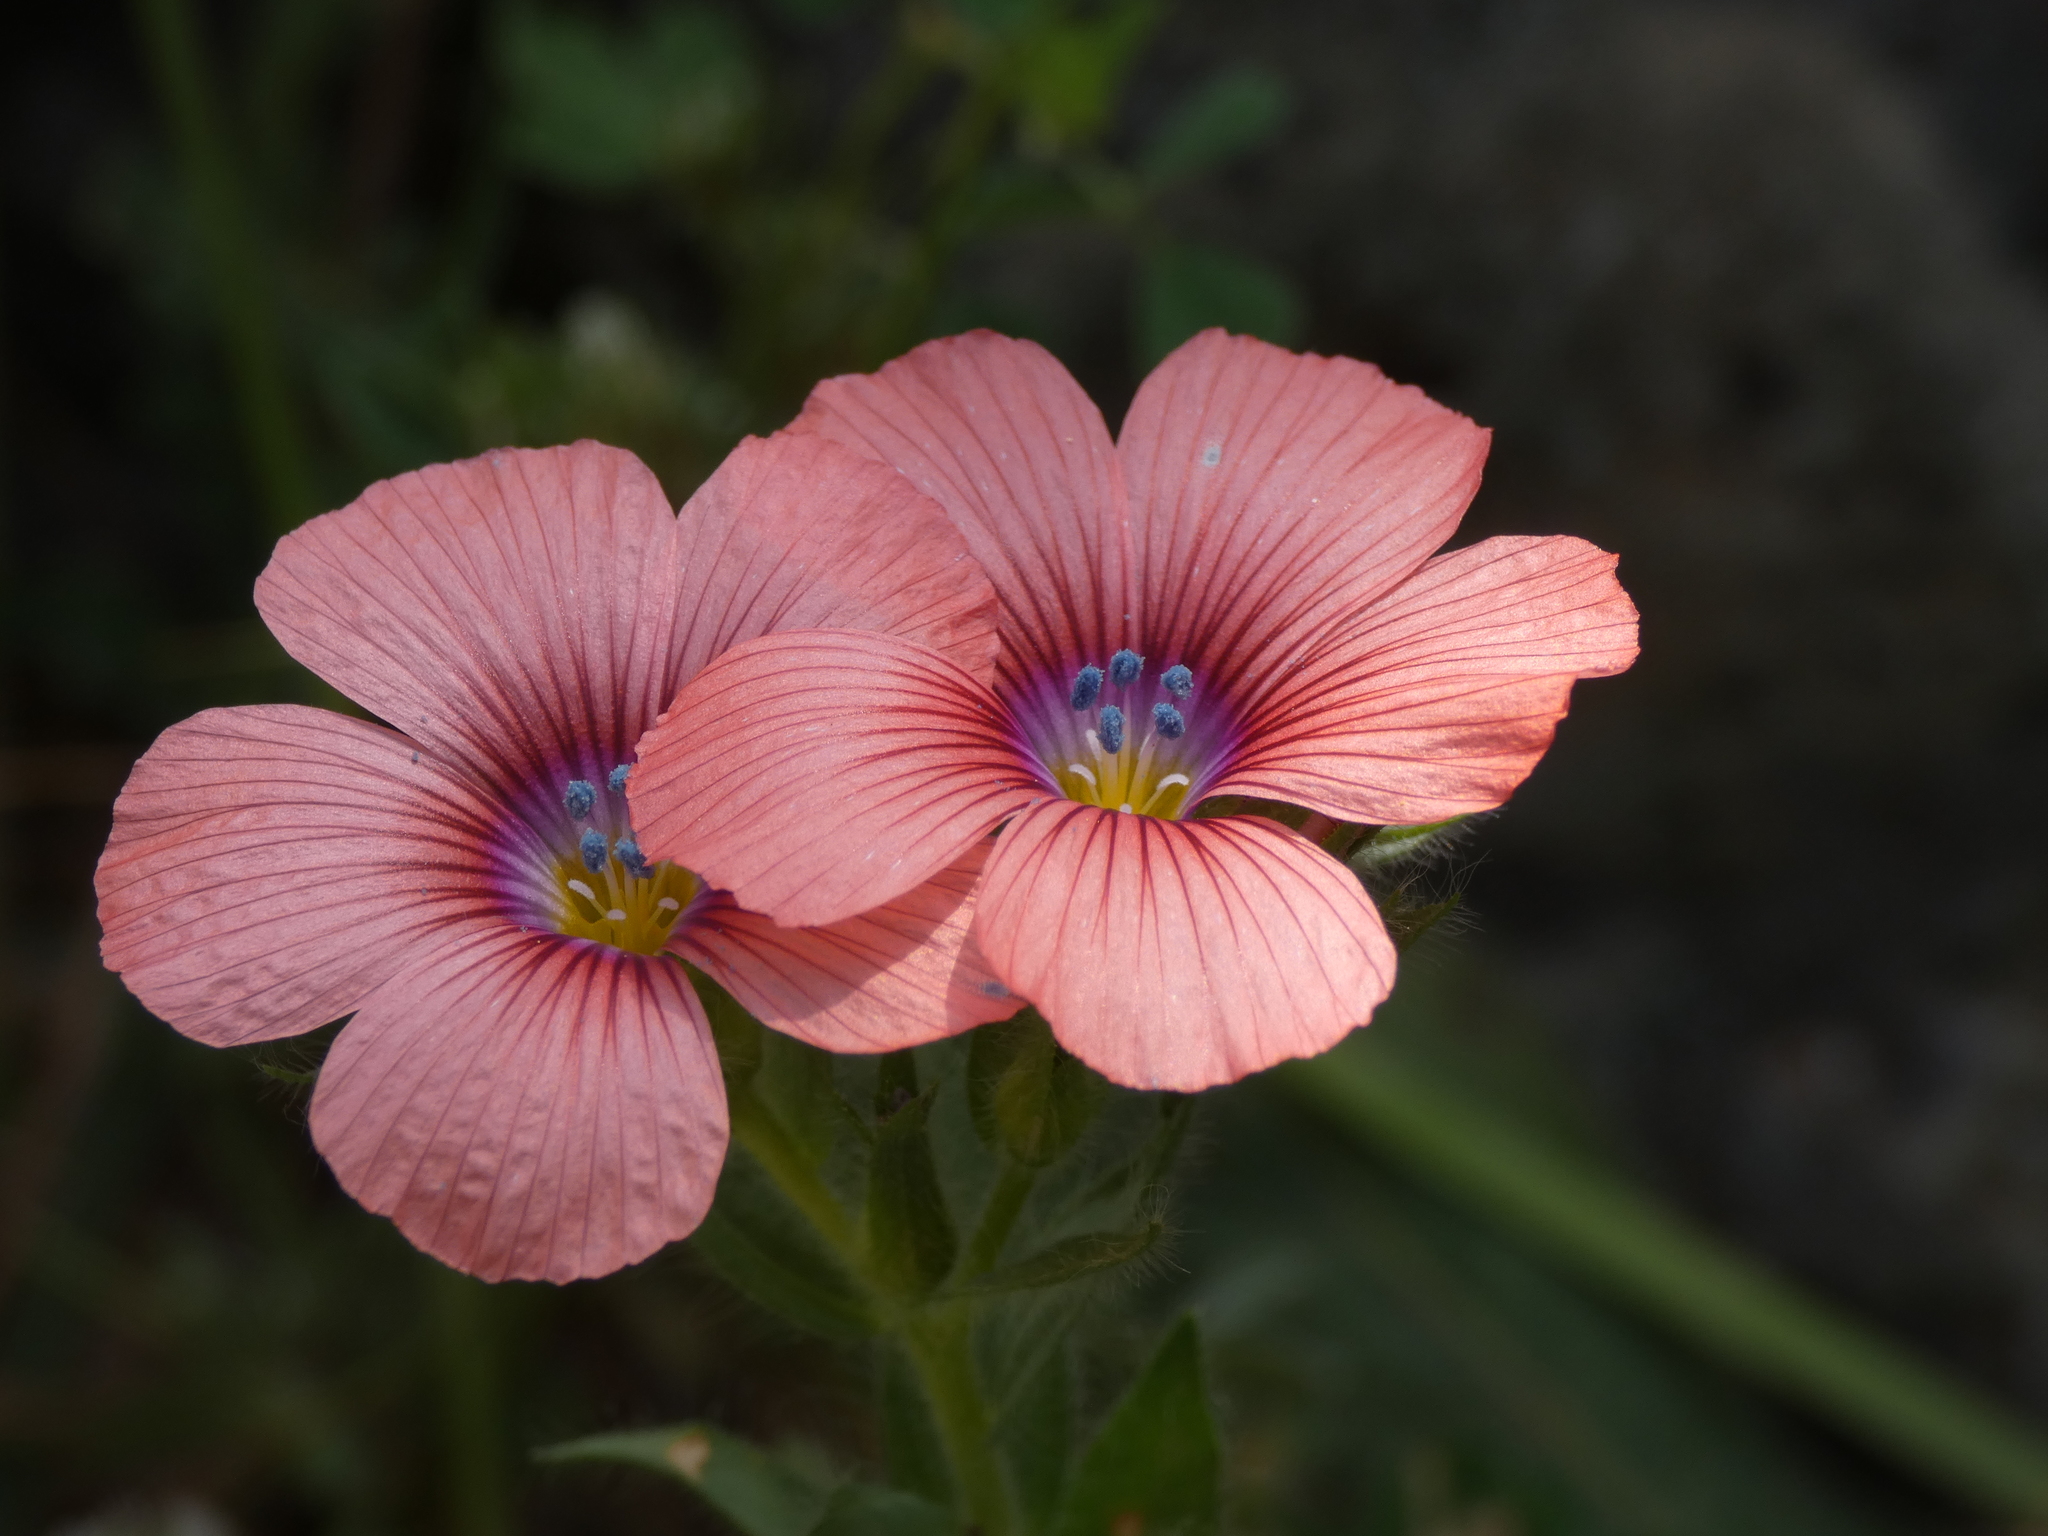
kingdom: Plantae
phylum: Tracheophyta
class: Magnoliopsida
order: Malpighiales
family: Linaceae
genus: Linum
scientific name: Linum pubescens
